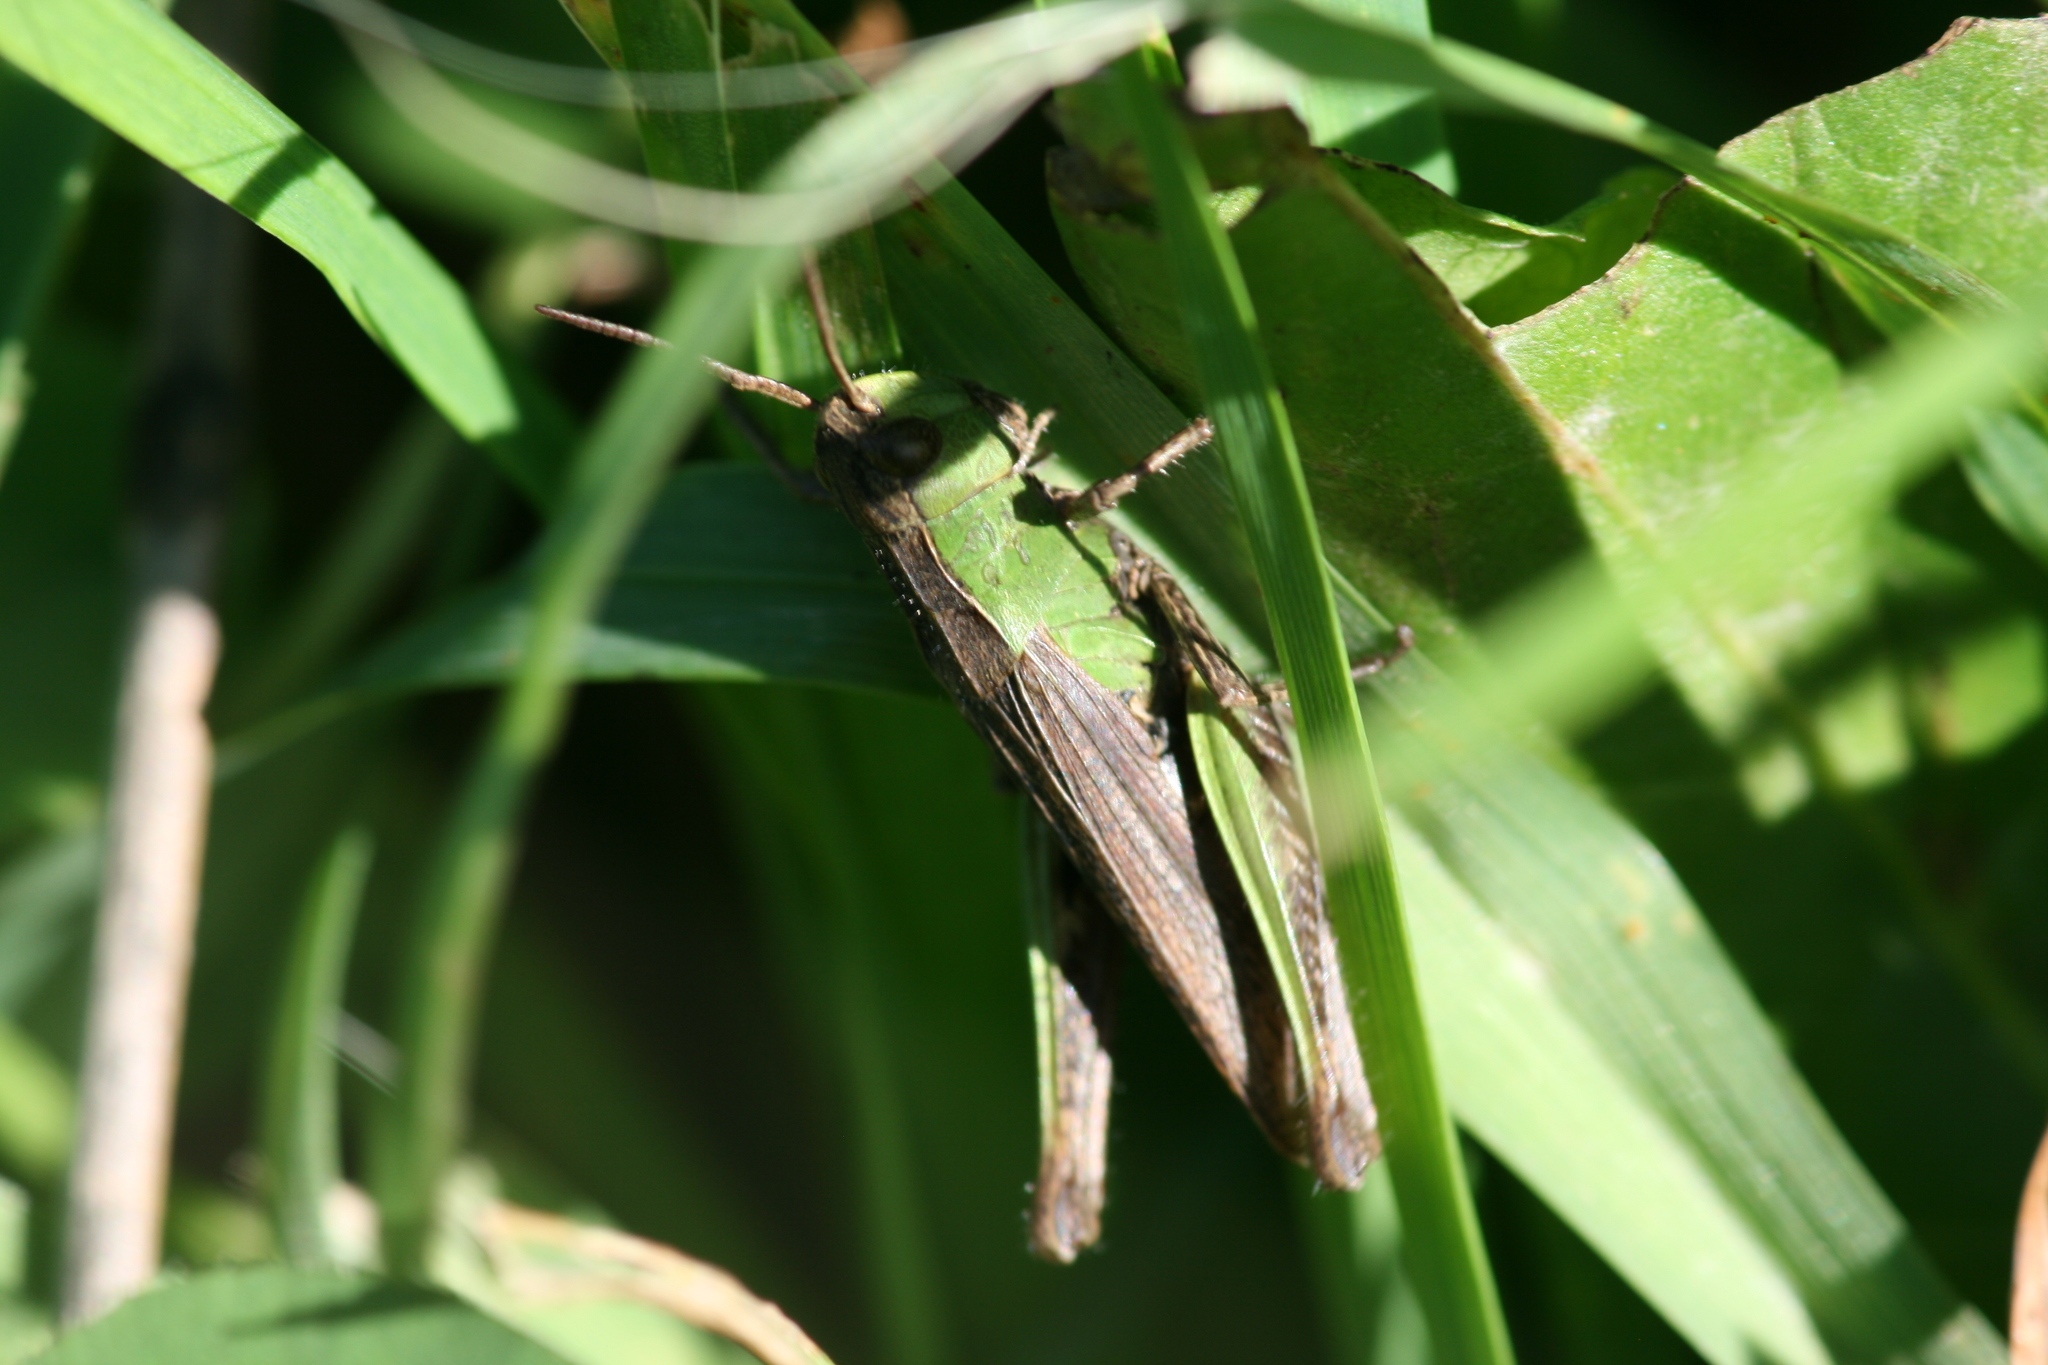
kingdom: Animalia
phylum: Arthropoda
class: Insecta
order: Orthoptera
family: Acrididae
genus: Chorthippus
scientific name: Chorthippus dorsatus
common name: Steppe grasshopper
